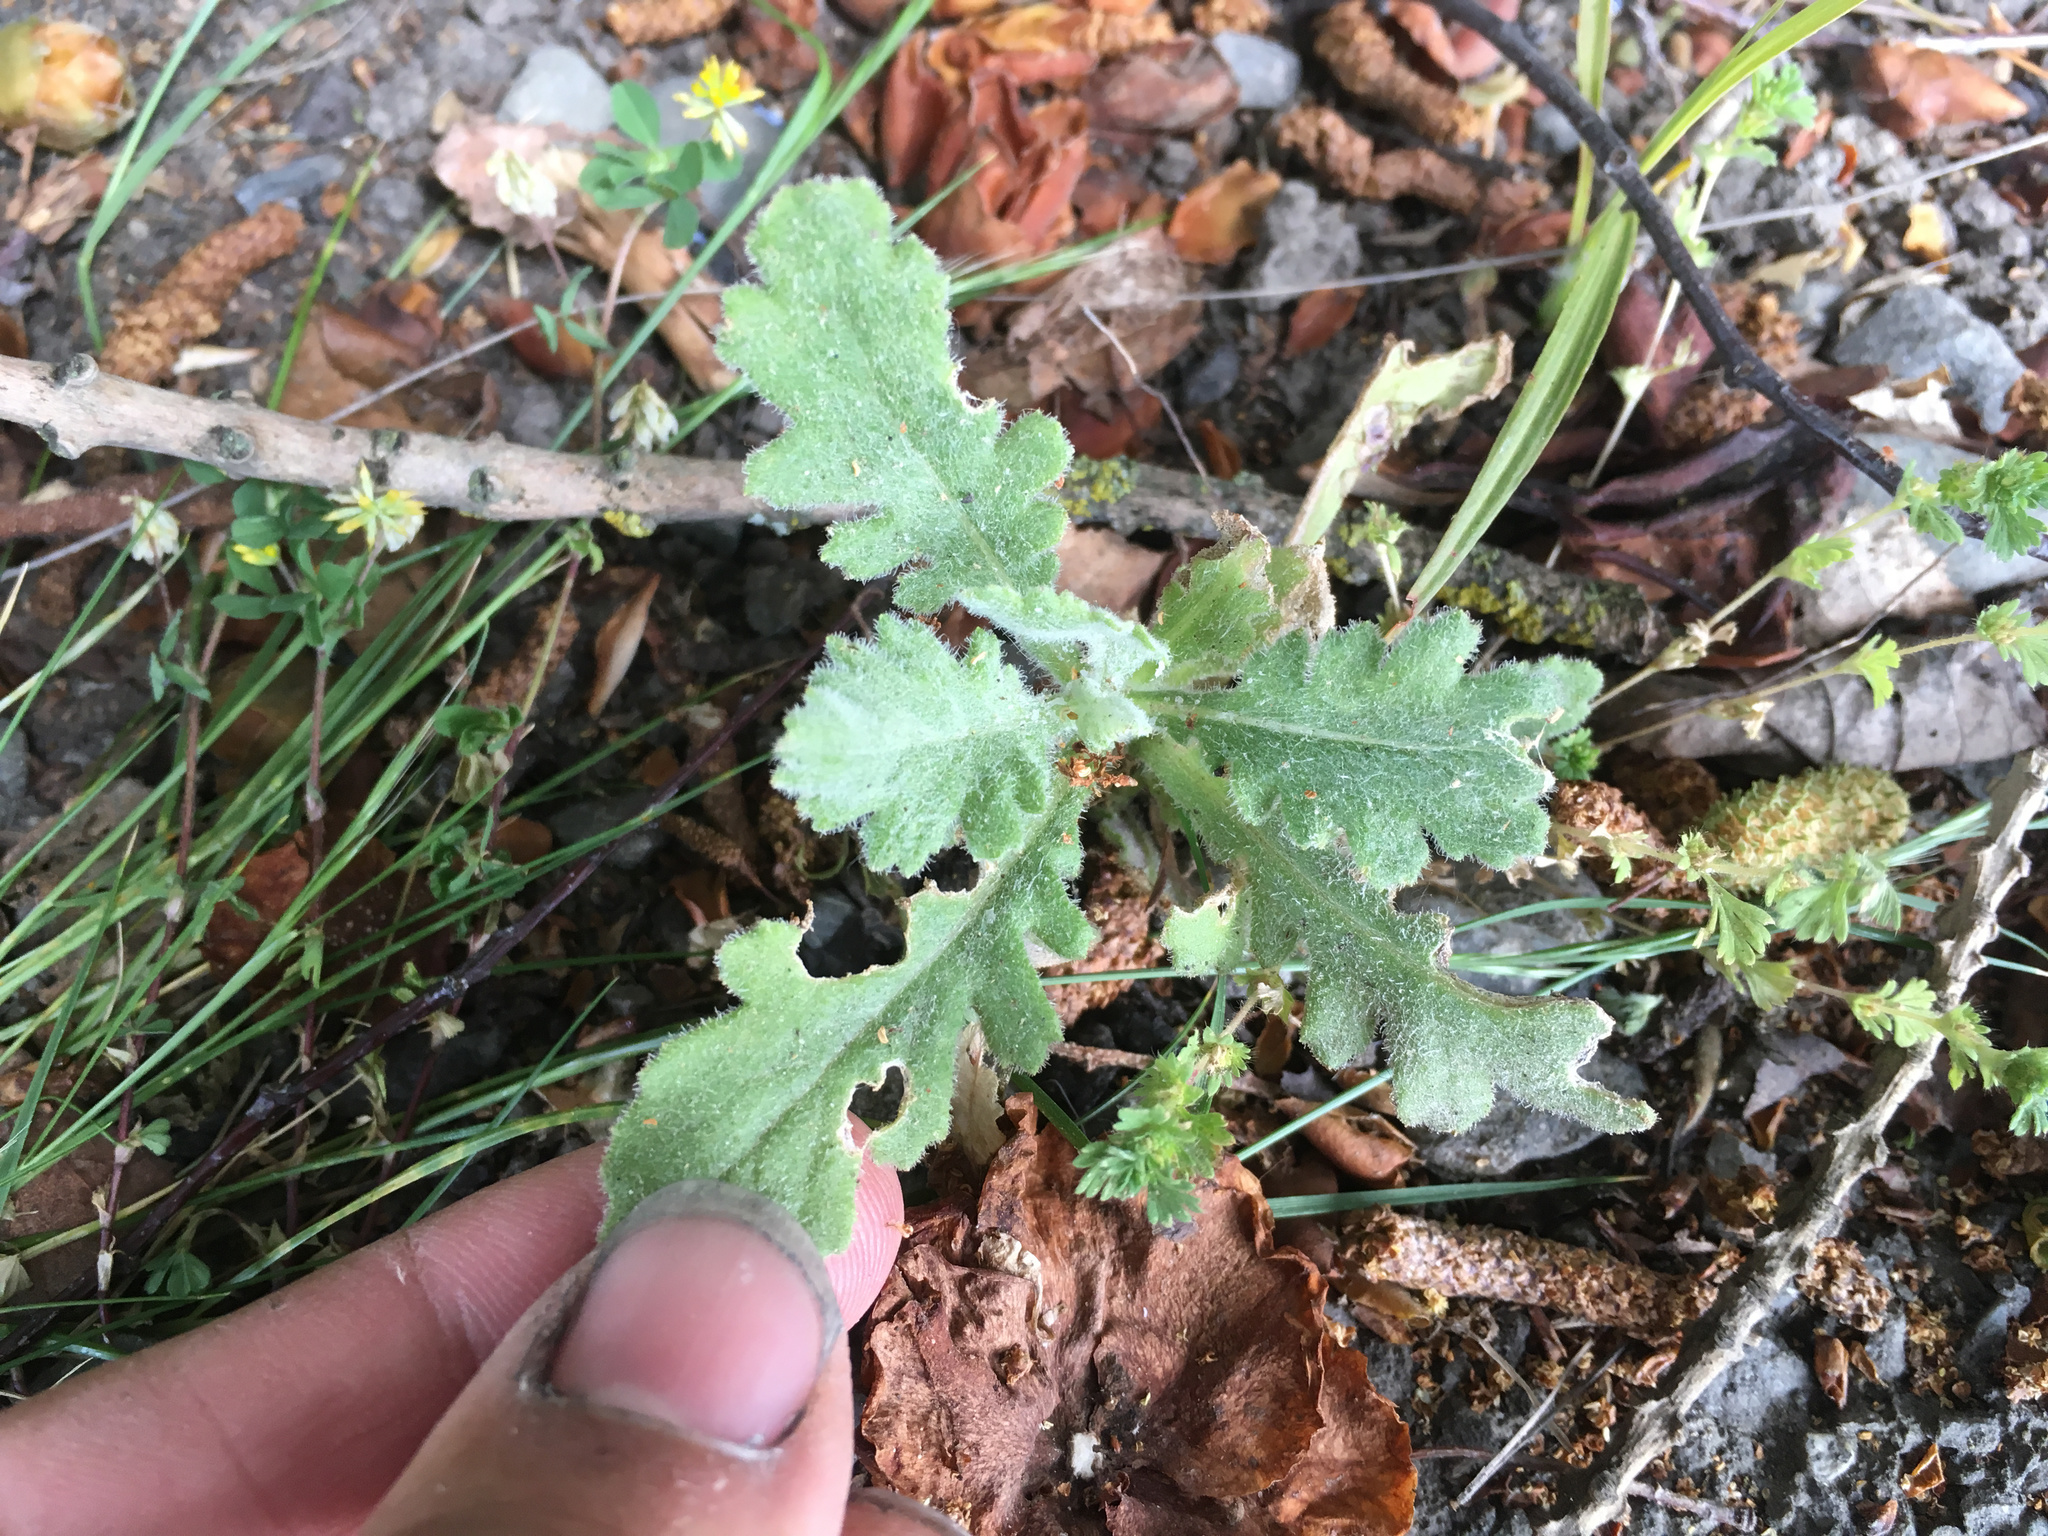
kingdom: Plantae
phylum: Tracheophyta
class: Magnoliopsida
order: Asterales
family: Asteraceae
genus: Senecio
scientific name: Senecio glomeratus
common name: Cutleaf burnweed
